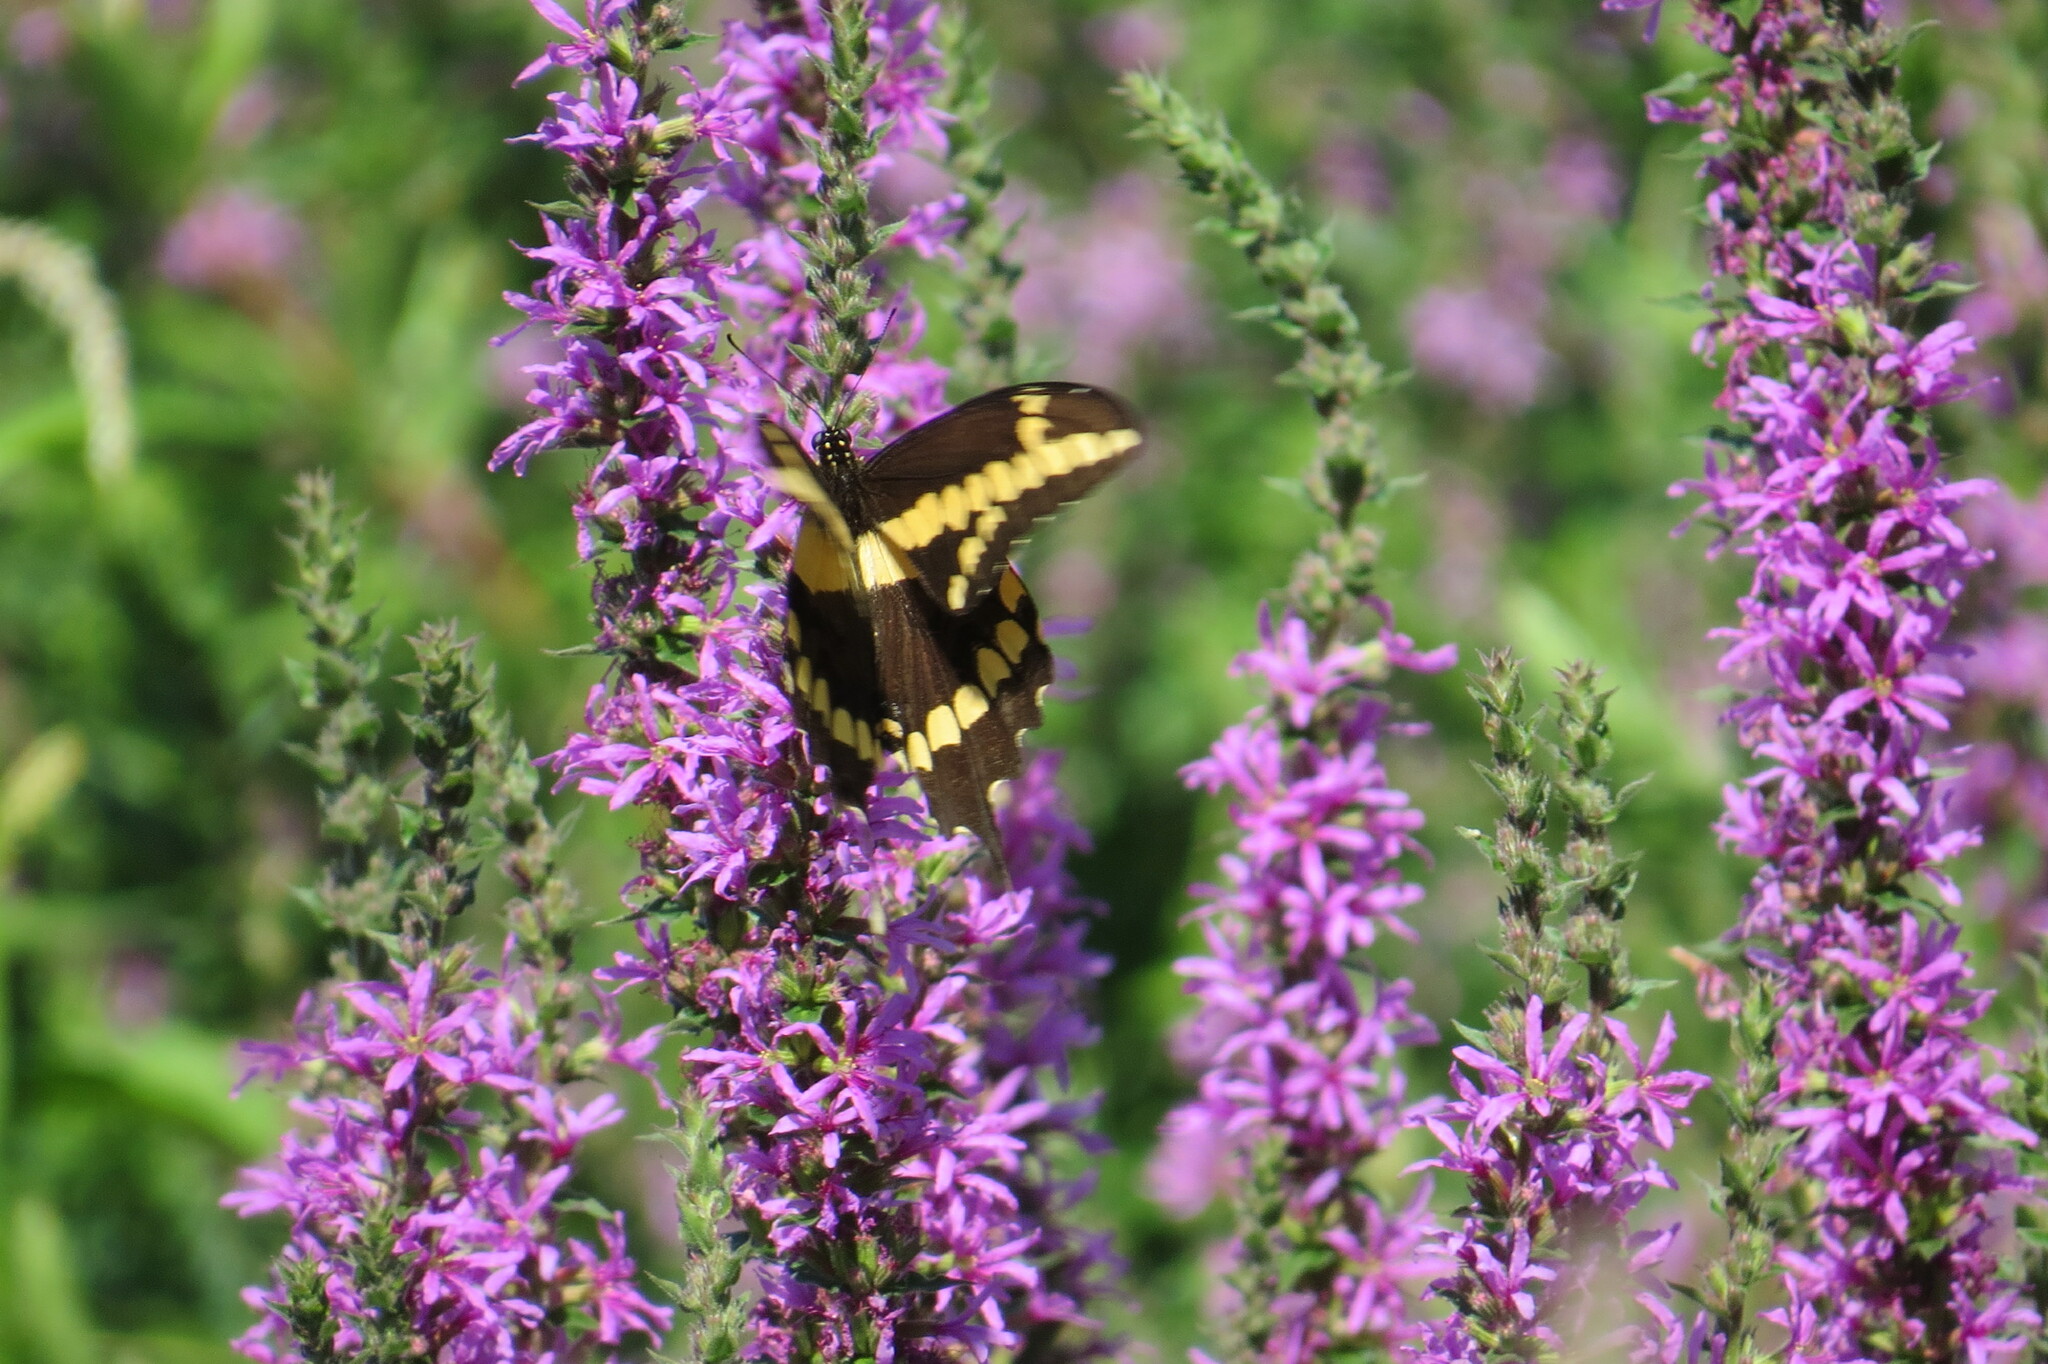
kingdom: Animalia
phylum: Arthropoda
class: Insecta
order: Lepidoptera
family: Papilionidae
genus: Papilio
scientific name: Papilio cresphontes
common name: Giant swallowtail
